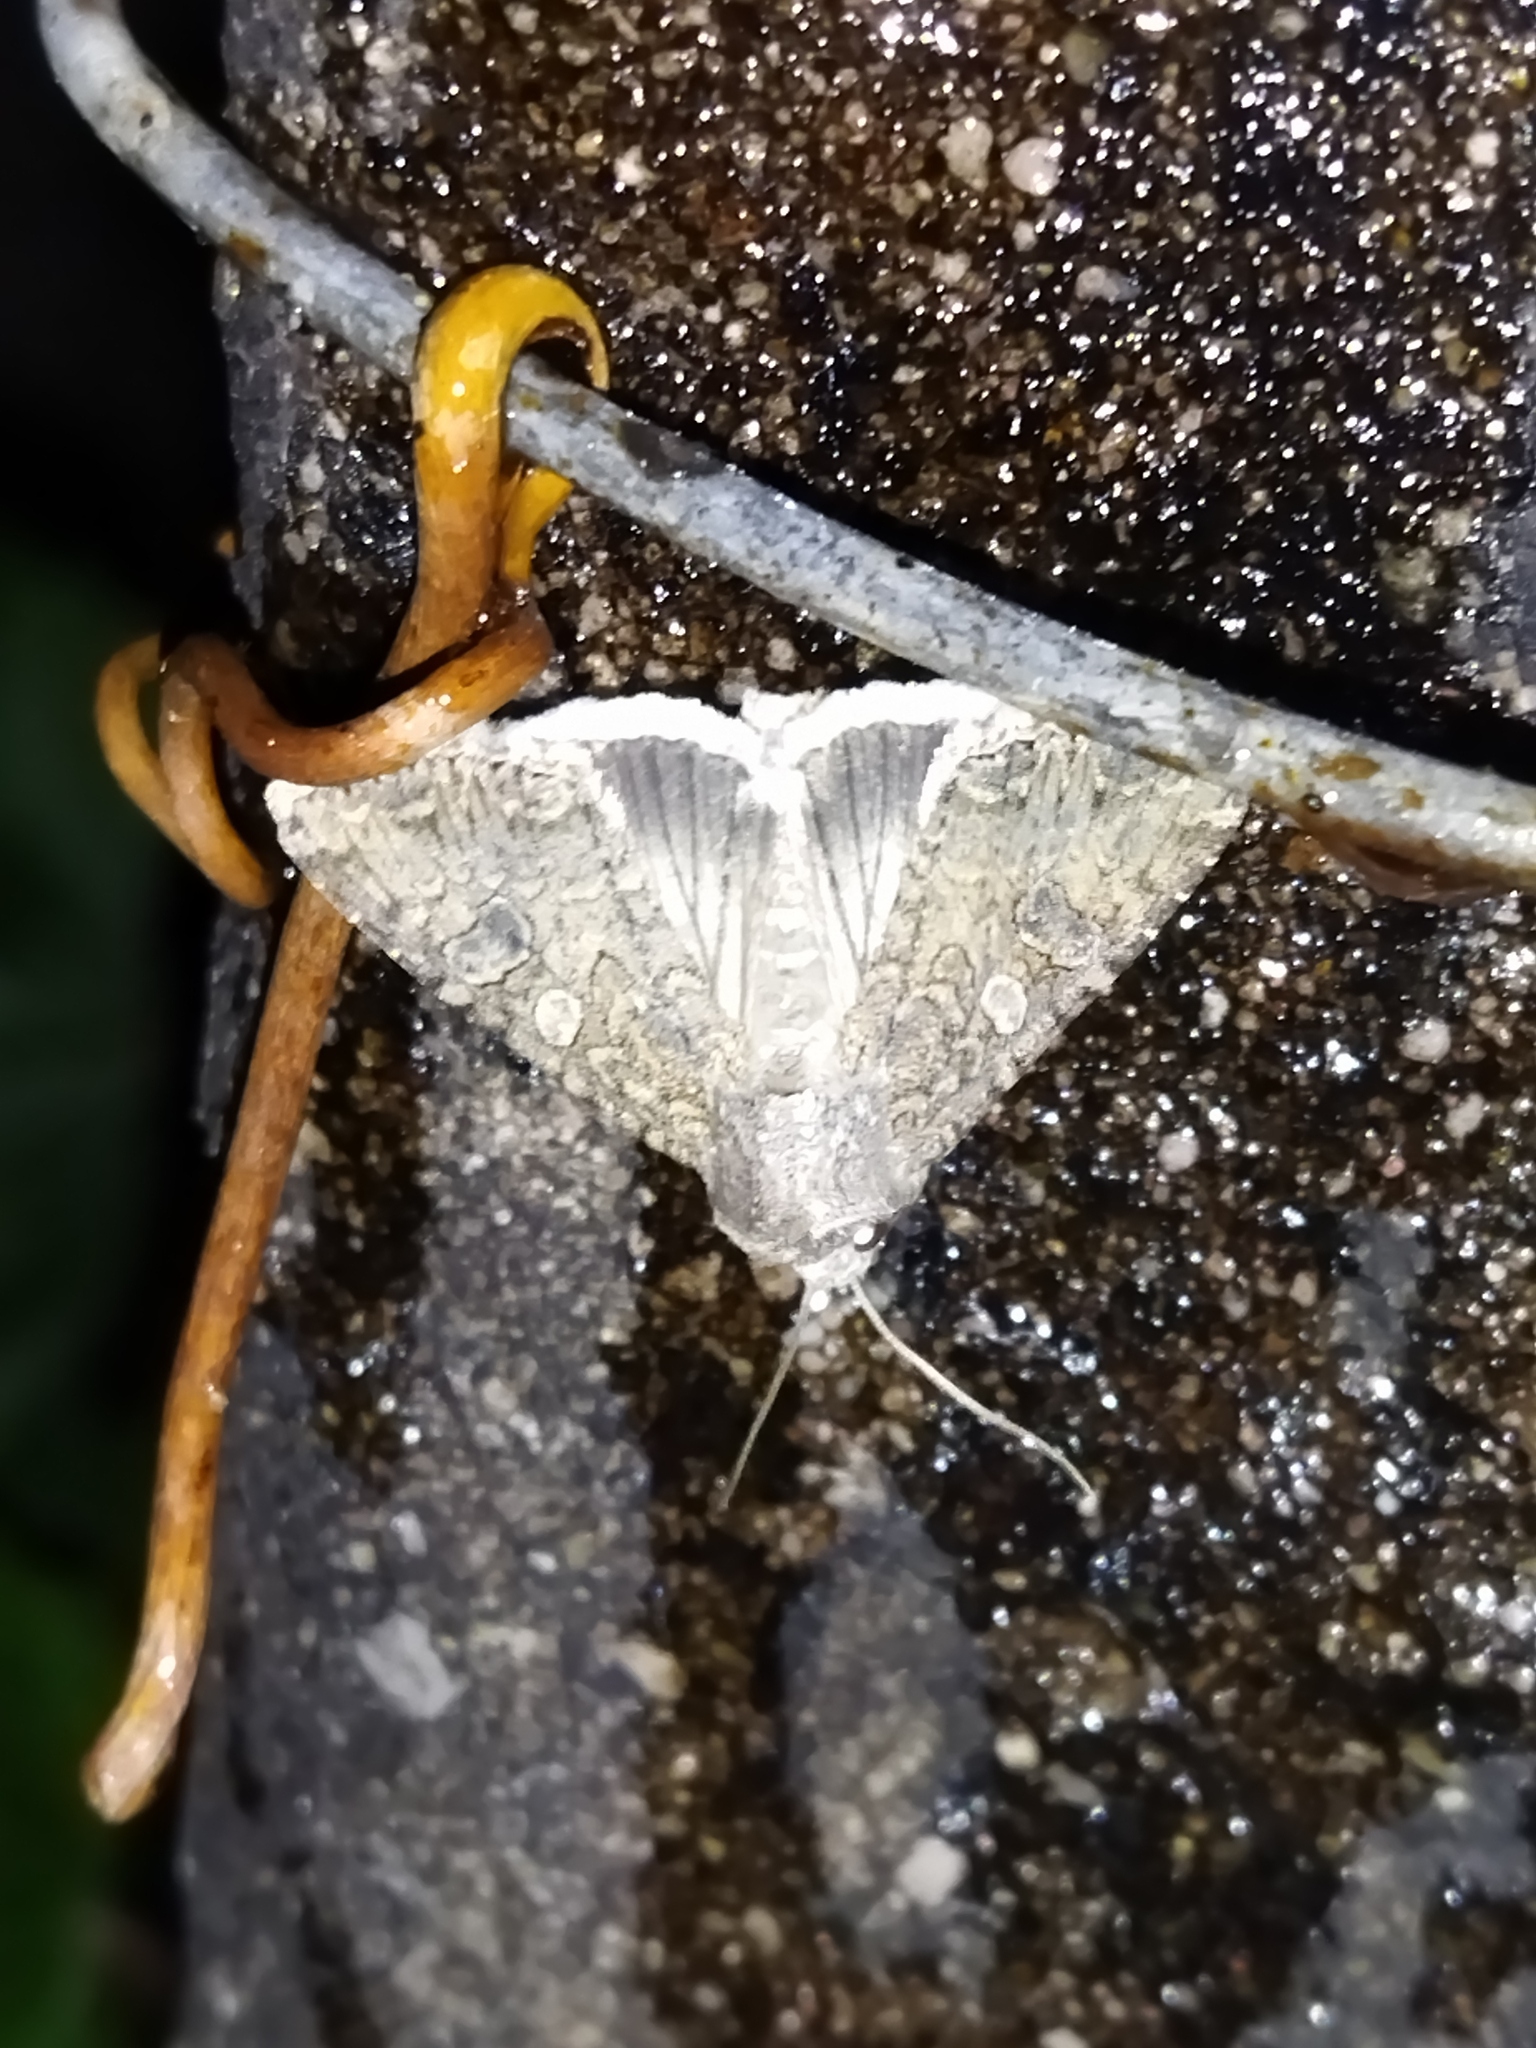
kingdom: Animalia
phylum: Arthropoda
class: Insecta
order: Lepidoptera
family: Noctuidae
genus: Anarta
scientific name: Anarta trifolii
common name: Clover cutworm moth
